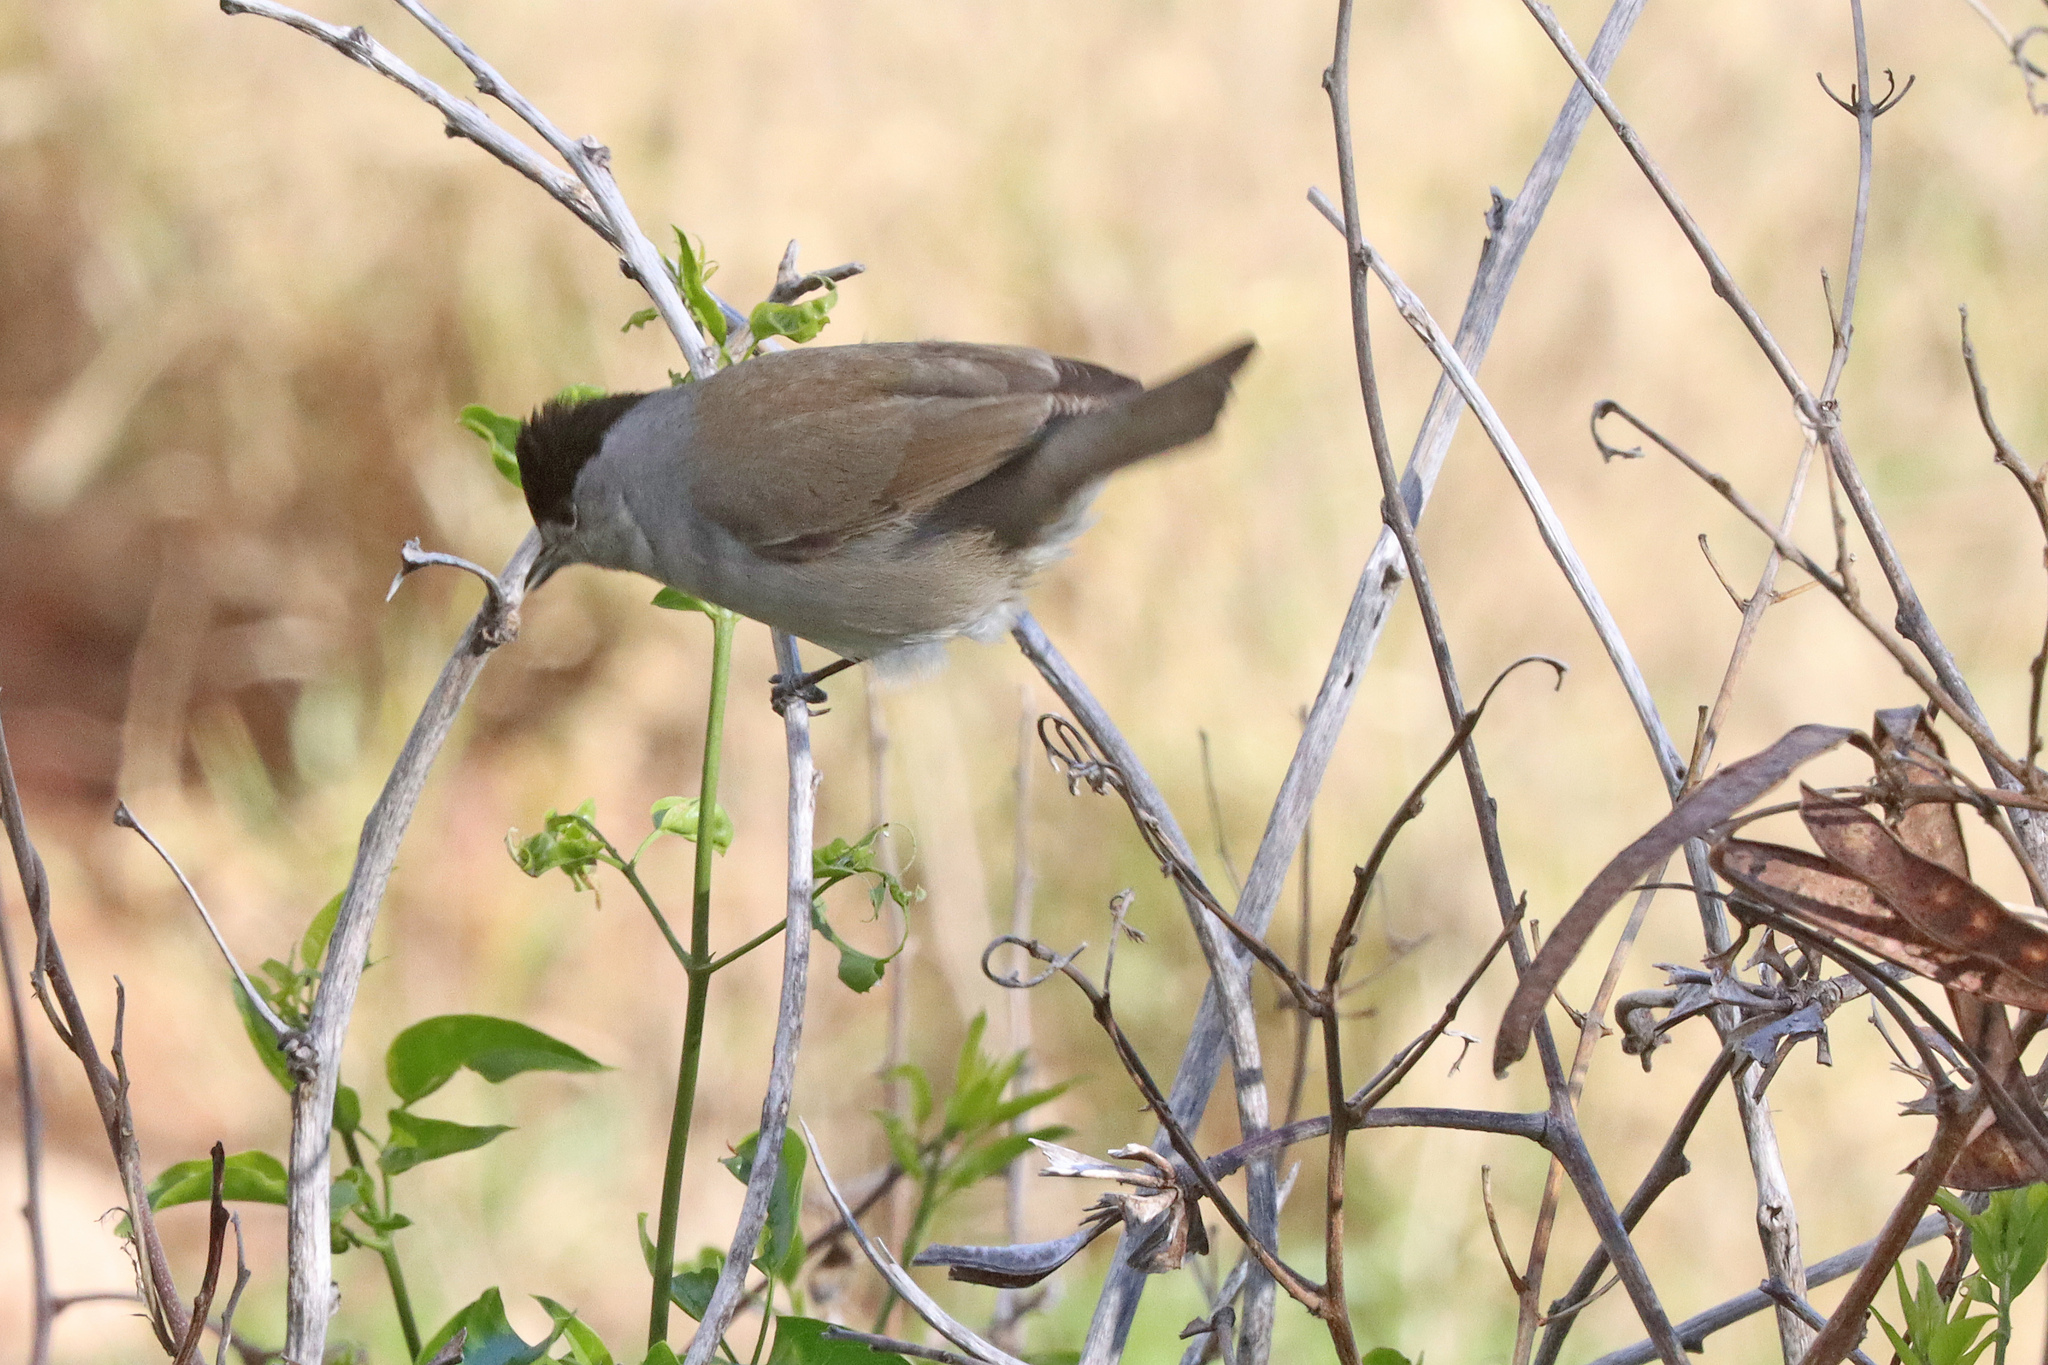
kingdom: Animalia
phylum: Chordata
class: Aves
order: Passeriformes
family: Sylviidae
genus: Sylvia
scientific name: Sylvia atricapilla
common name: Eurasian blackcap
